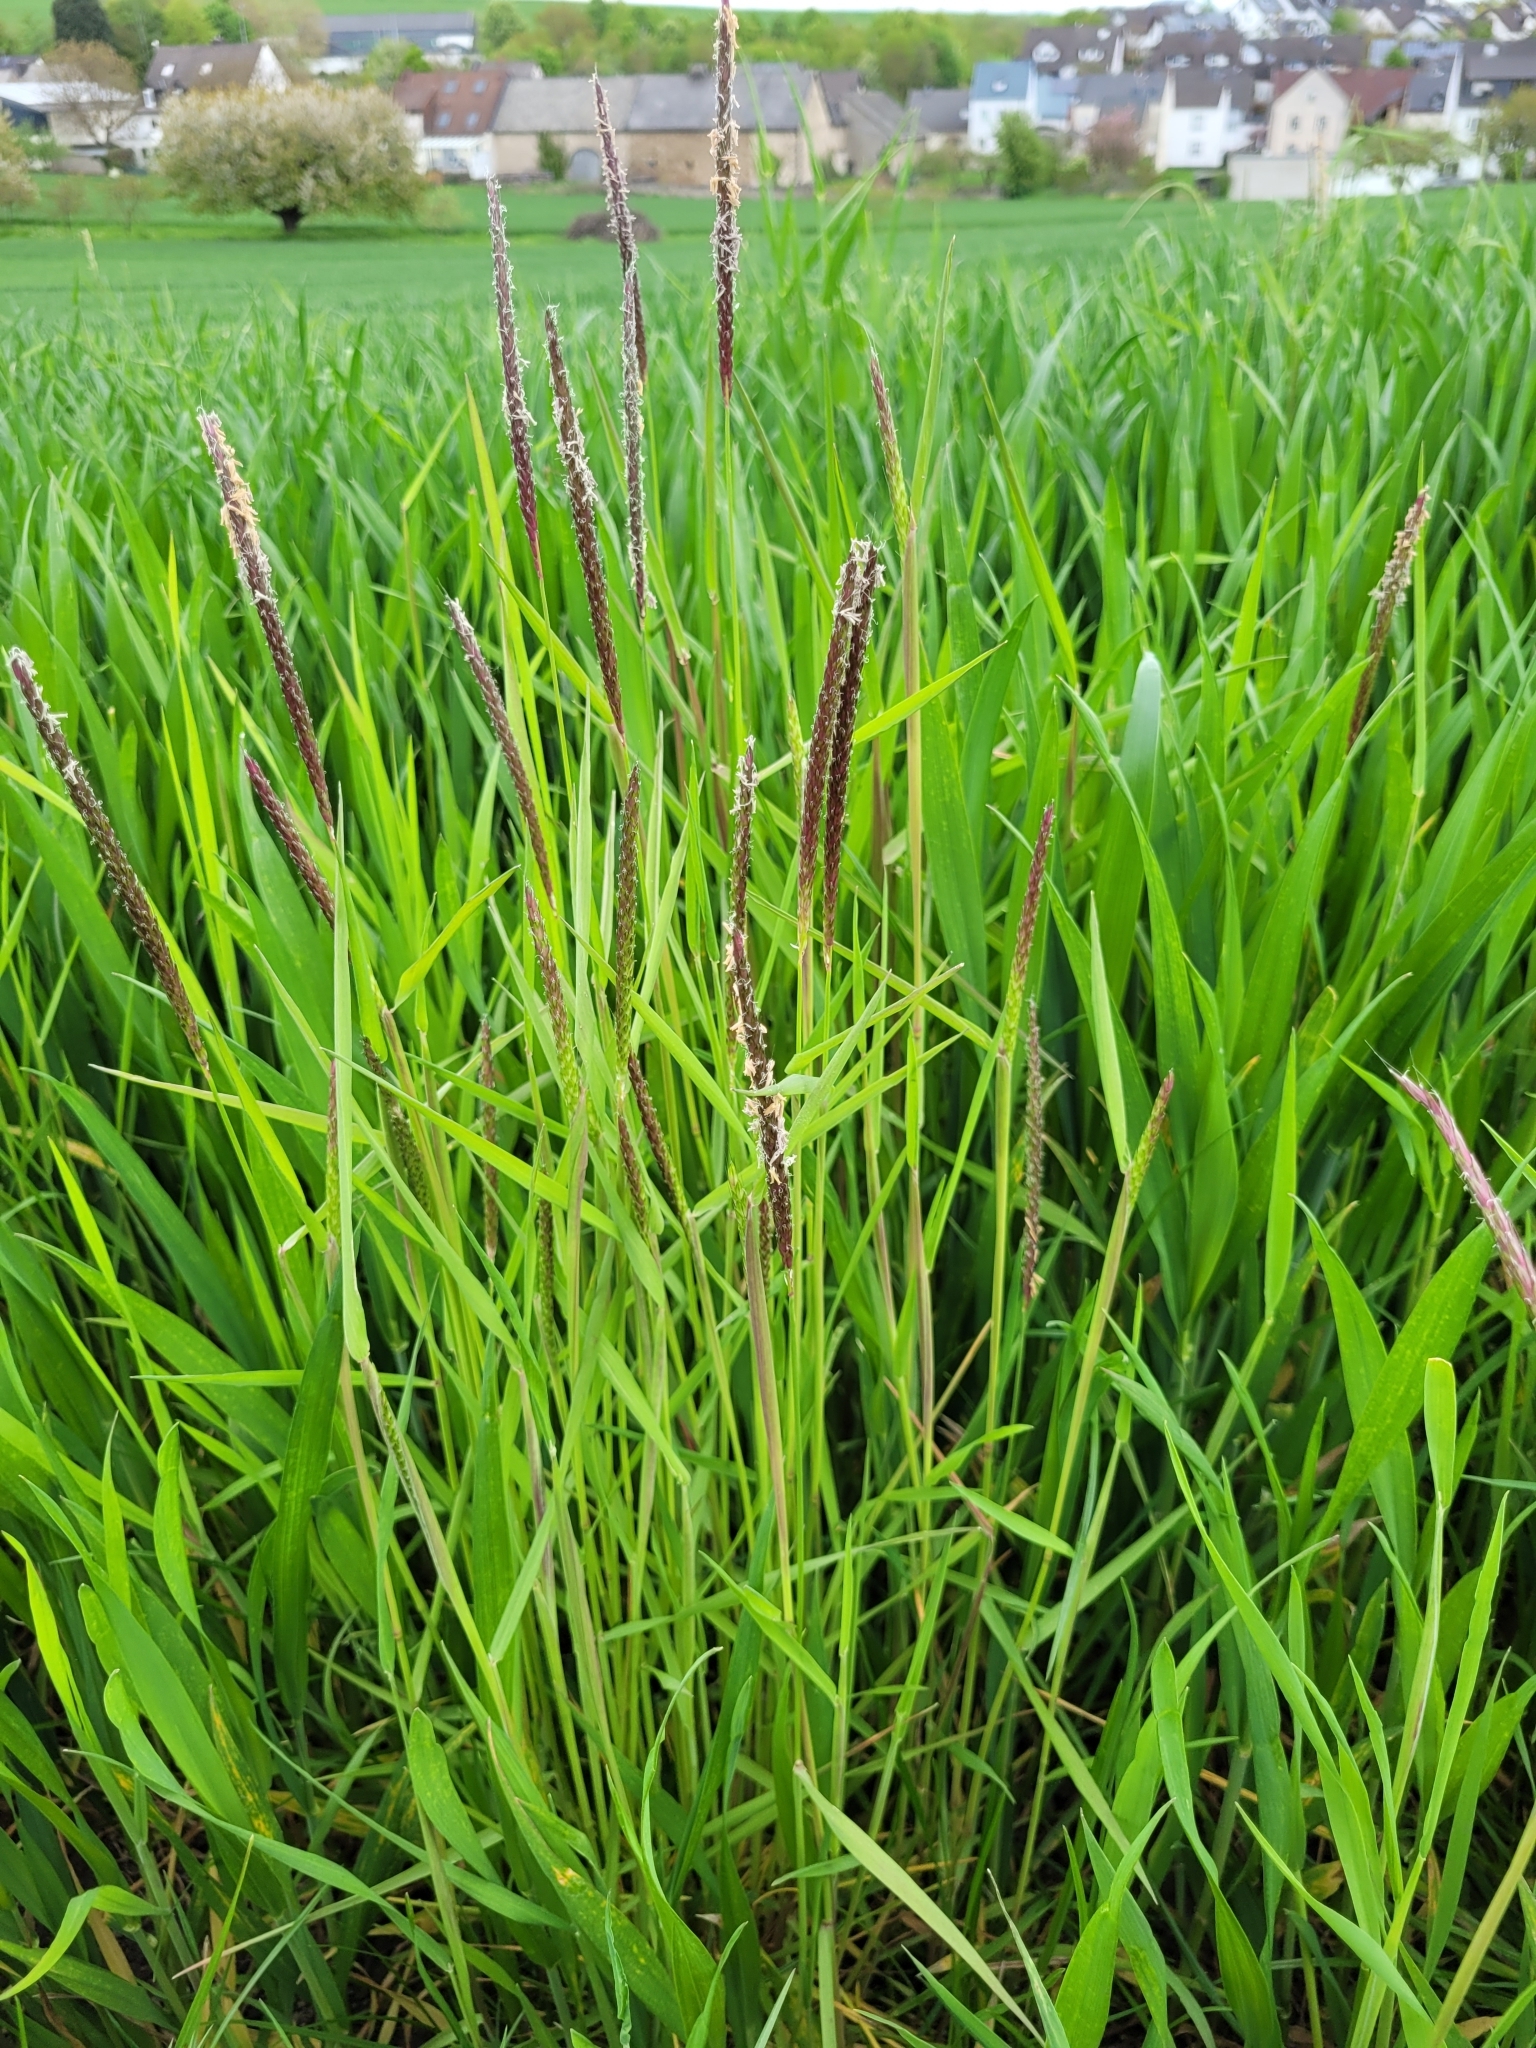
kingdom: Plantae
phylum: Tracheophyta
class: Liliopsida
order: Poales
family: Poaceae
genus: Alopecurus
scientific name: Alopecurus myosuroides
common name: Black-grass
